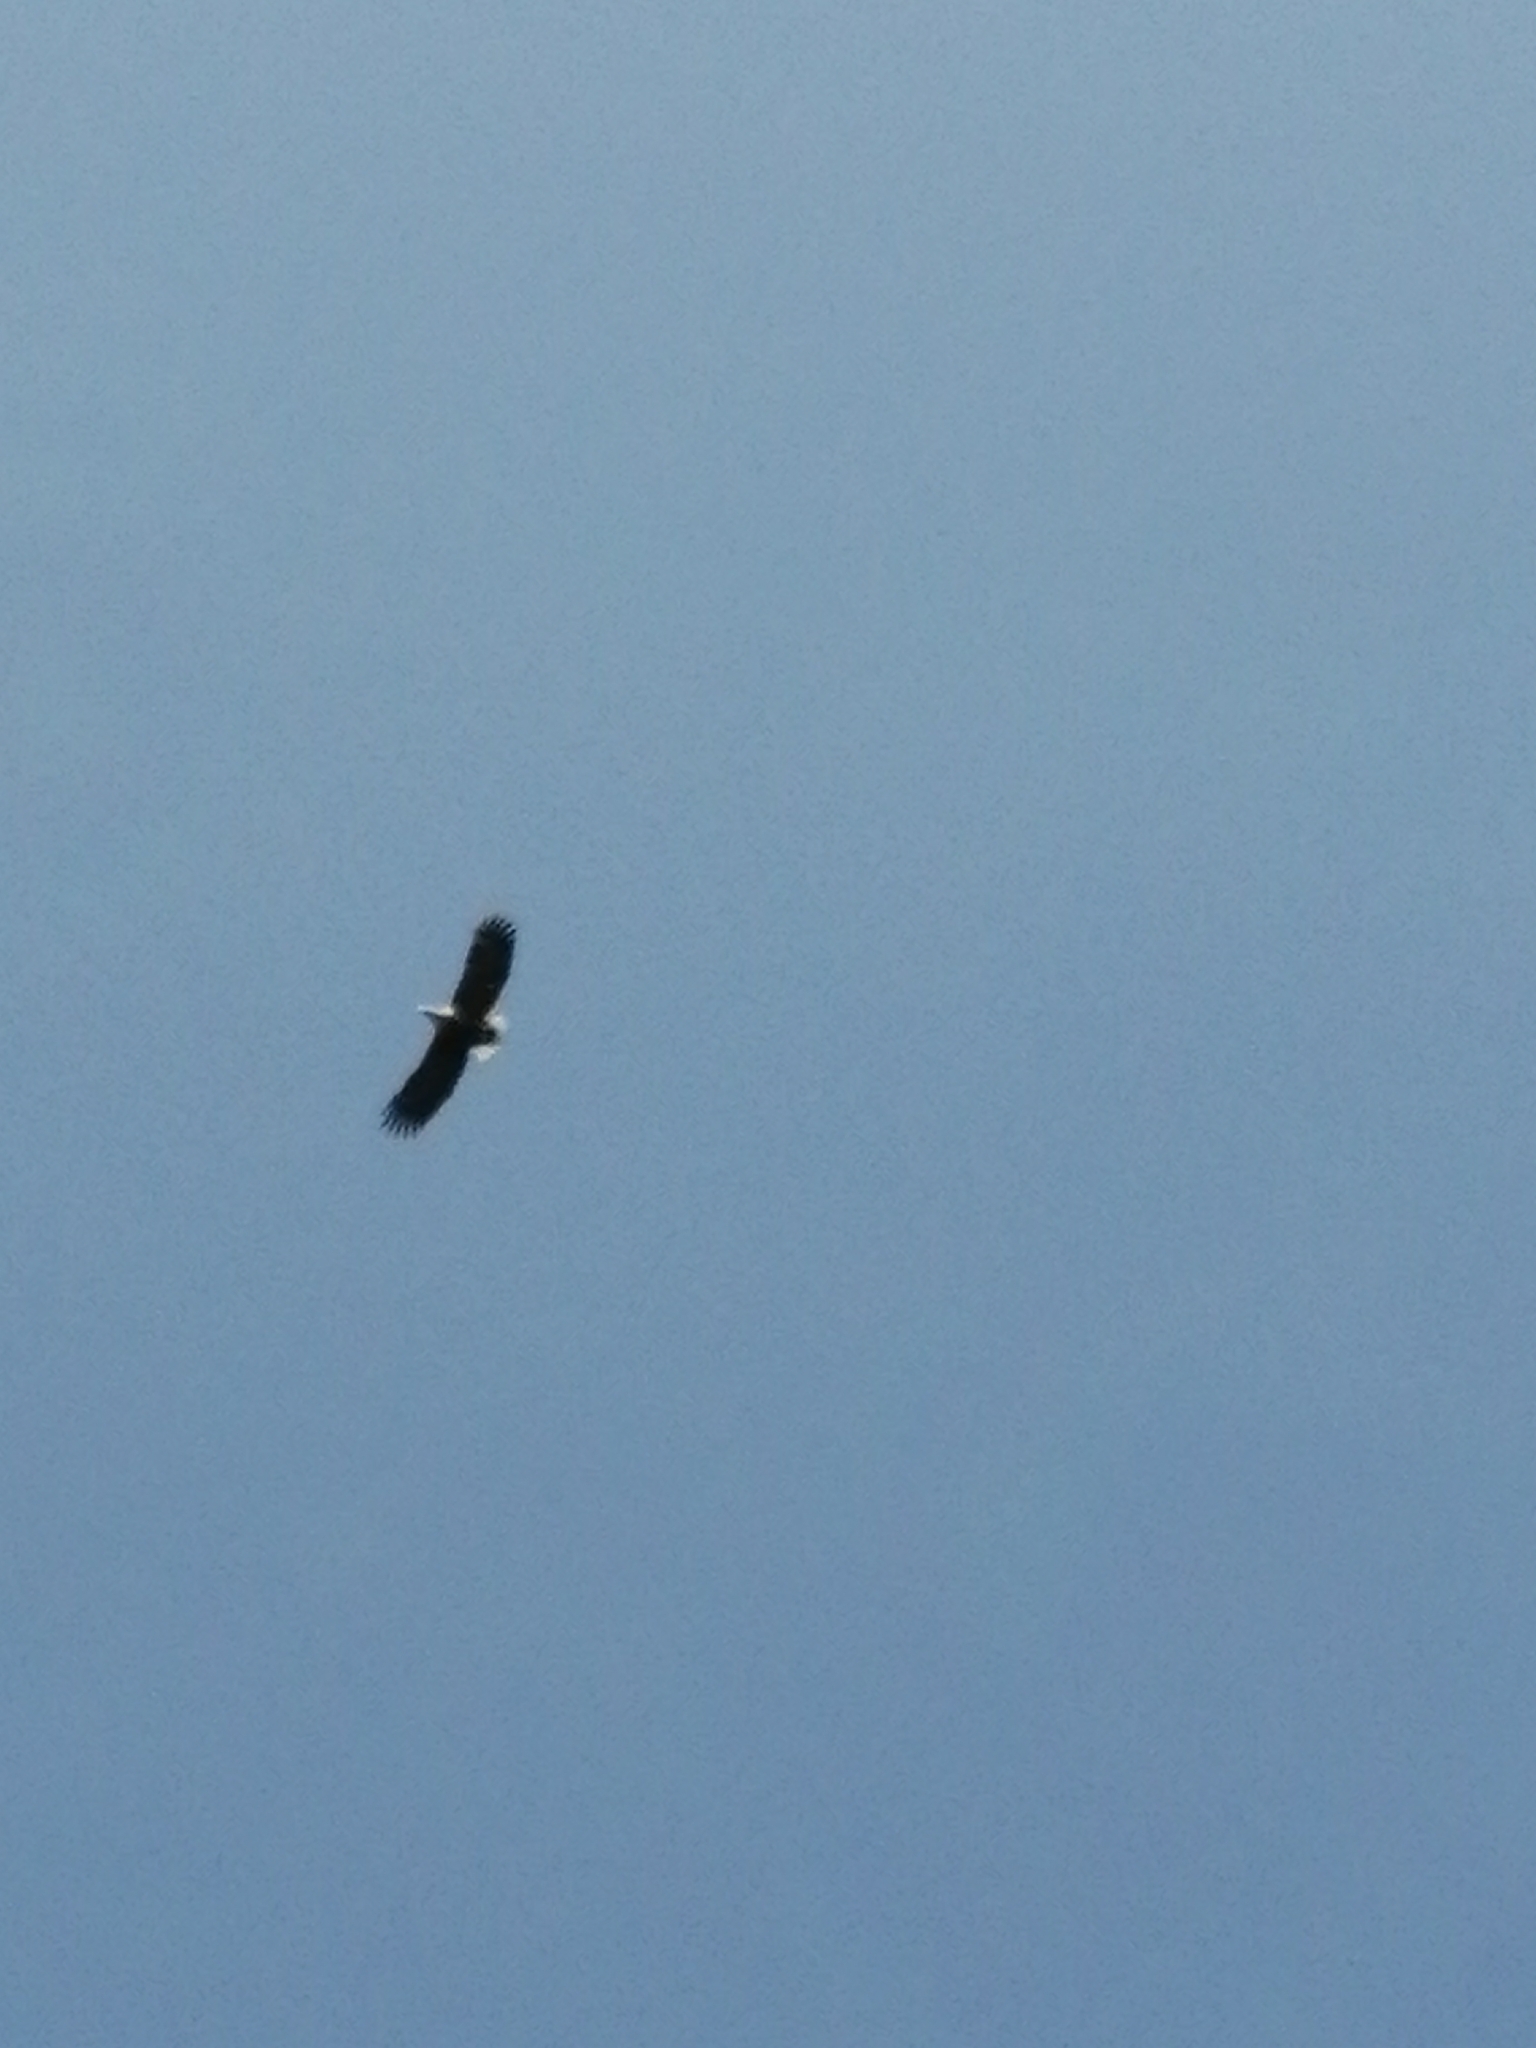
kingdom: Animalia
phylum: Chordata
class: Aves
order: Accipitriformes
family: Accipitridae
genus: Haliaeetus
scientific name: Haliaeetus albicilla
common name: White-tailed eagle
